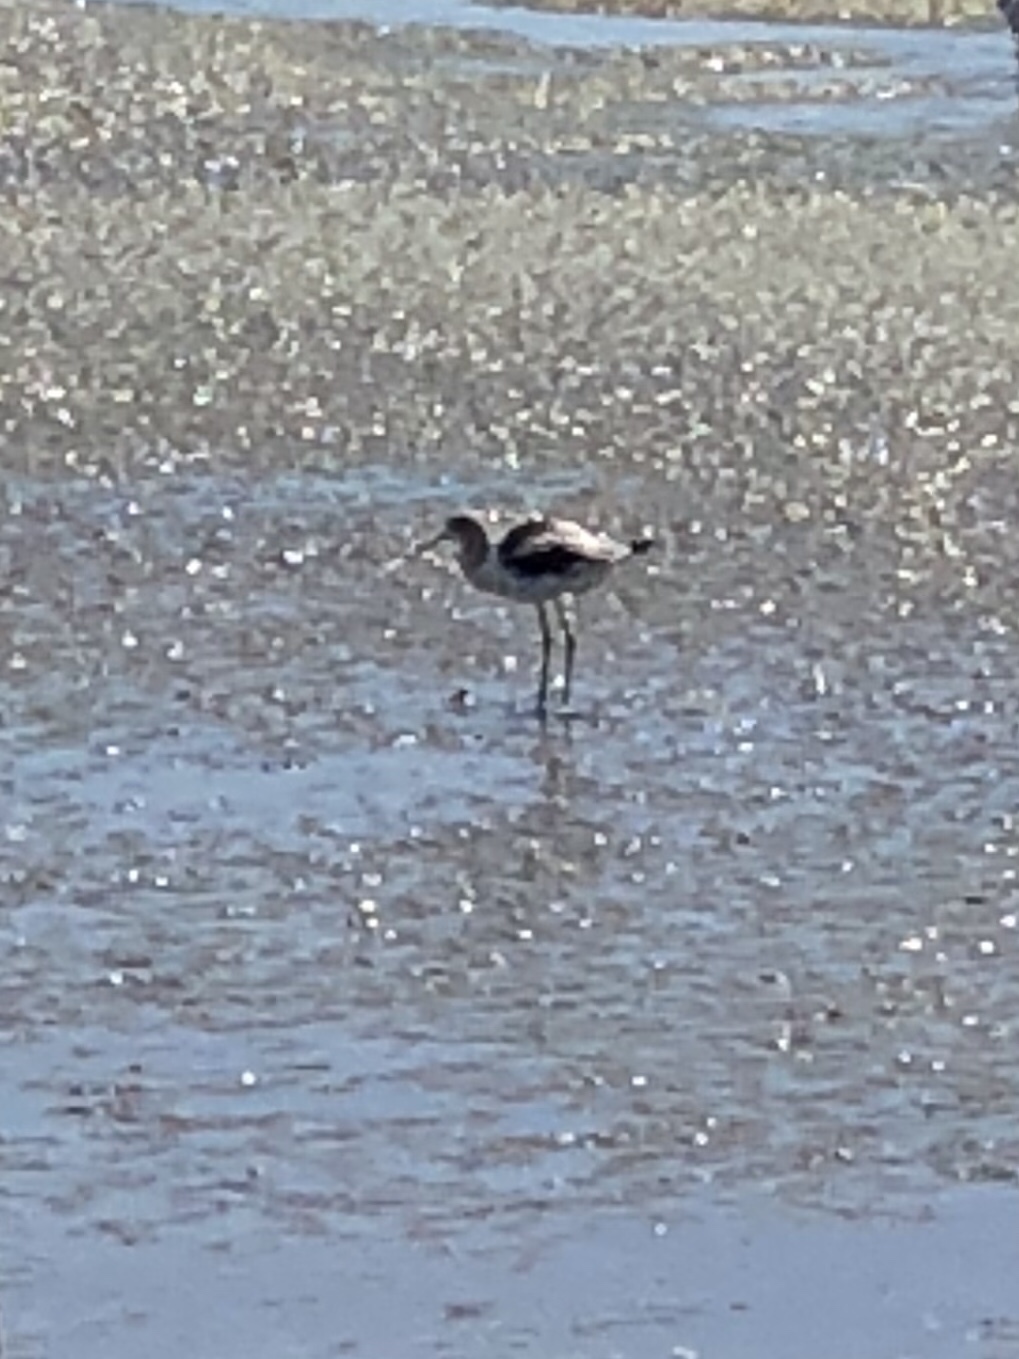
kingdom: Animalia
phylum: Chordata
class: Aves
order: Charadriiformes
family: Recurvirostridae
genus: Recurvirostra
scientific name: Recurvirostra americana
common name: American avocet
